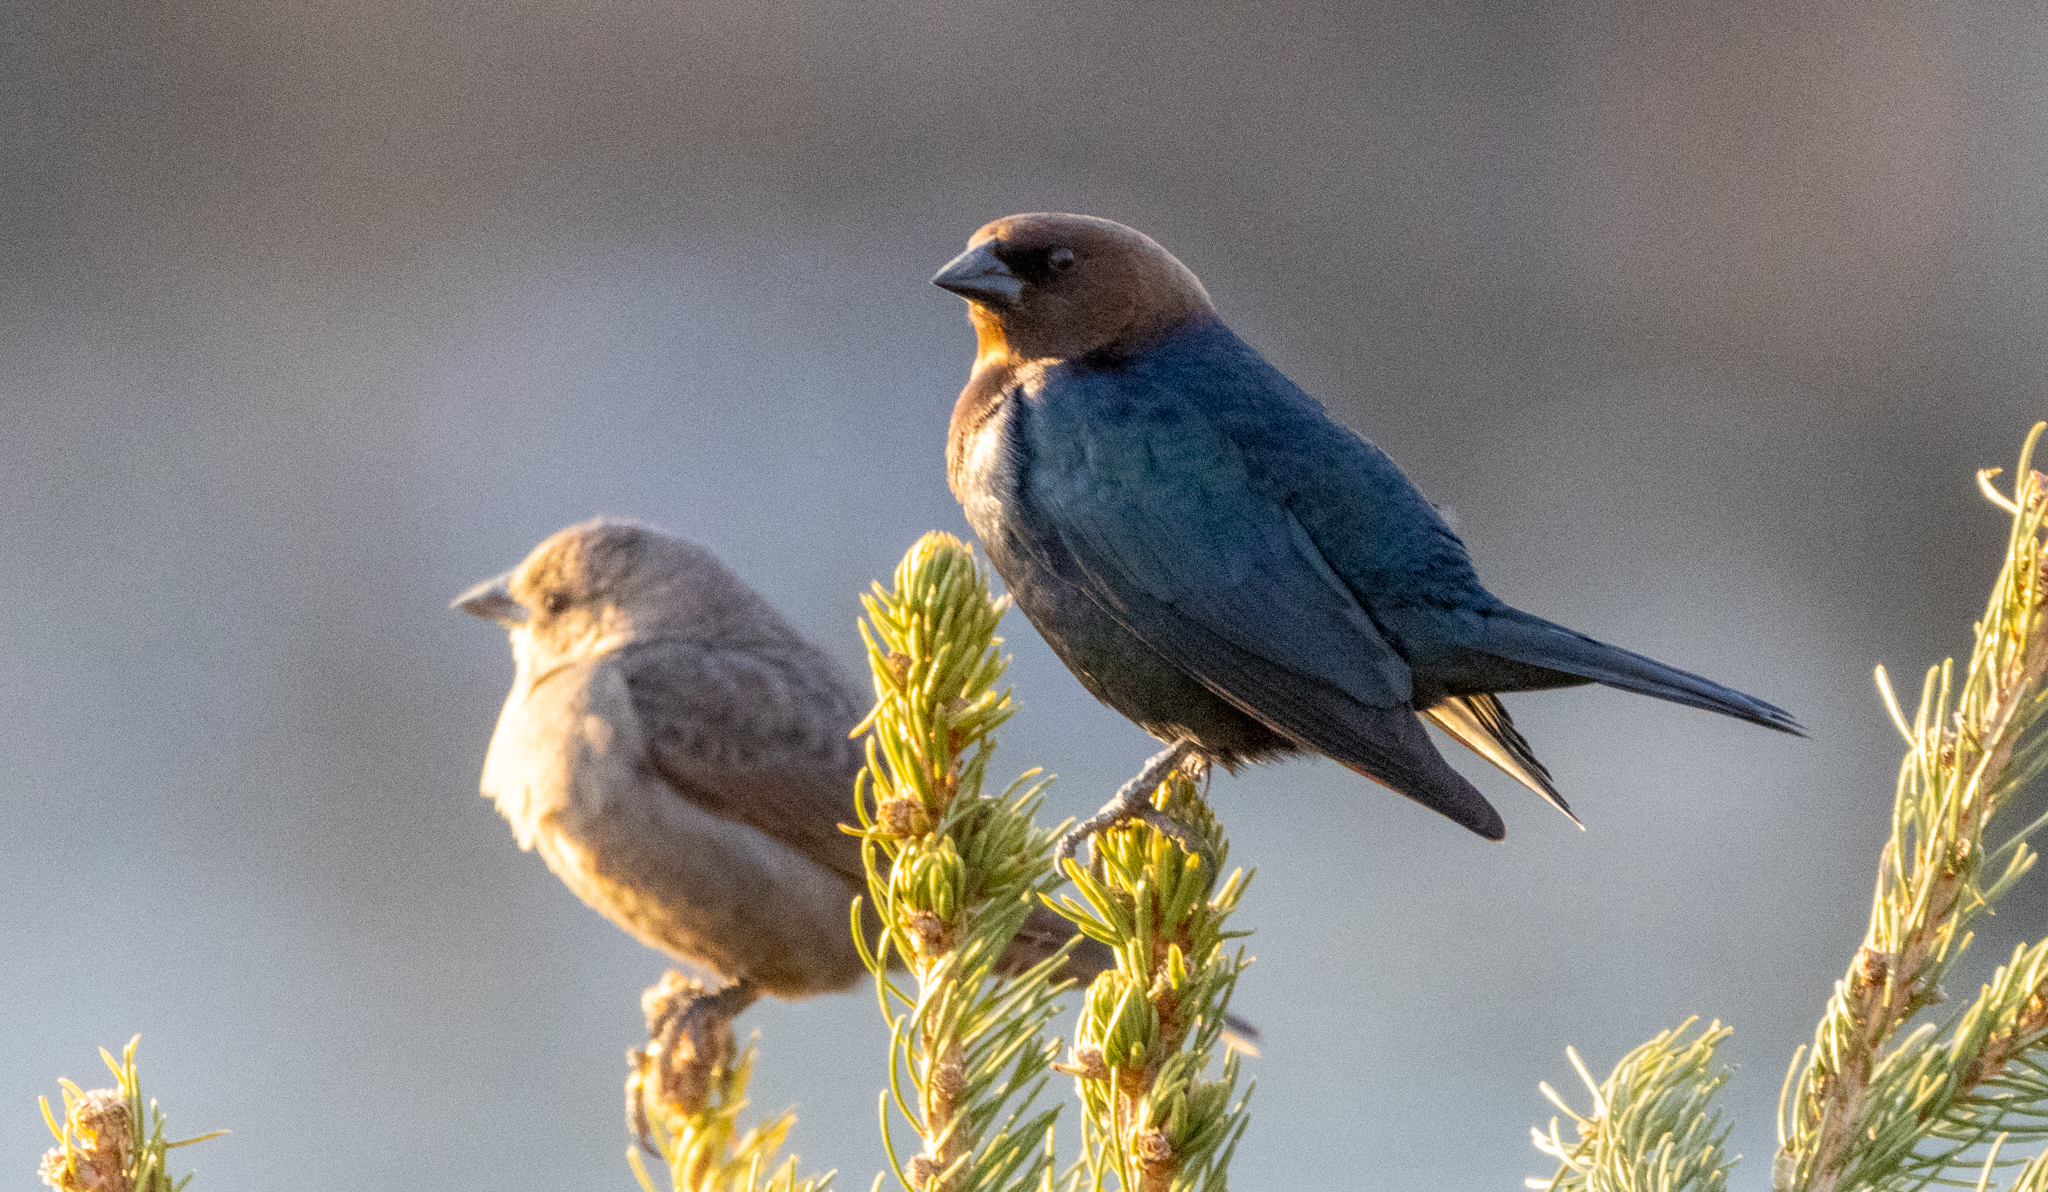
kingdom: Animalia
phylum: Chordata
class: Aves
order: Passeriformes
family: Icteridae
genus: Molothrus
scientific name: Molothrus ater
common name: Brown-headed cowbird
